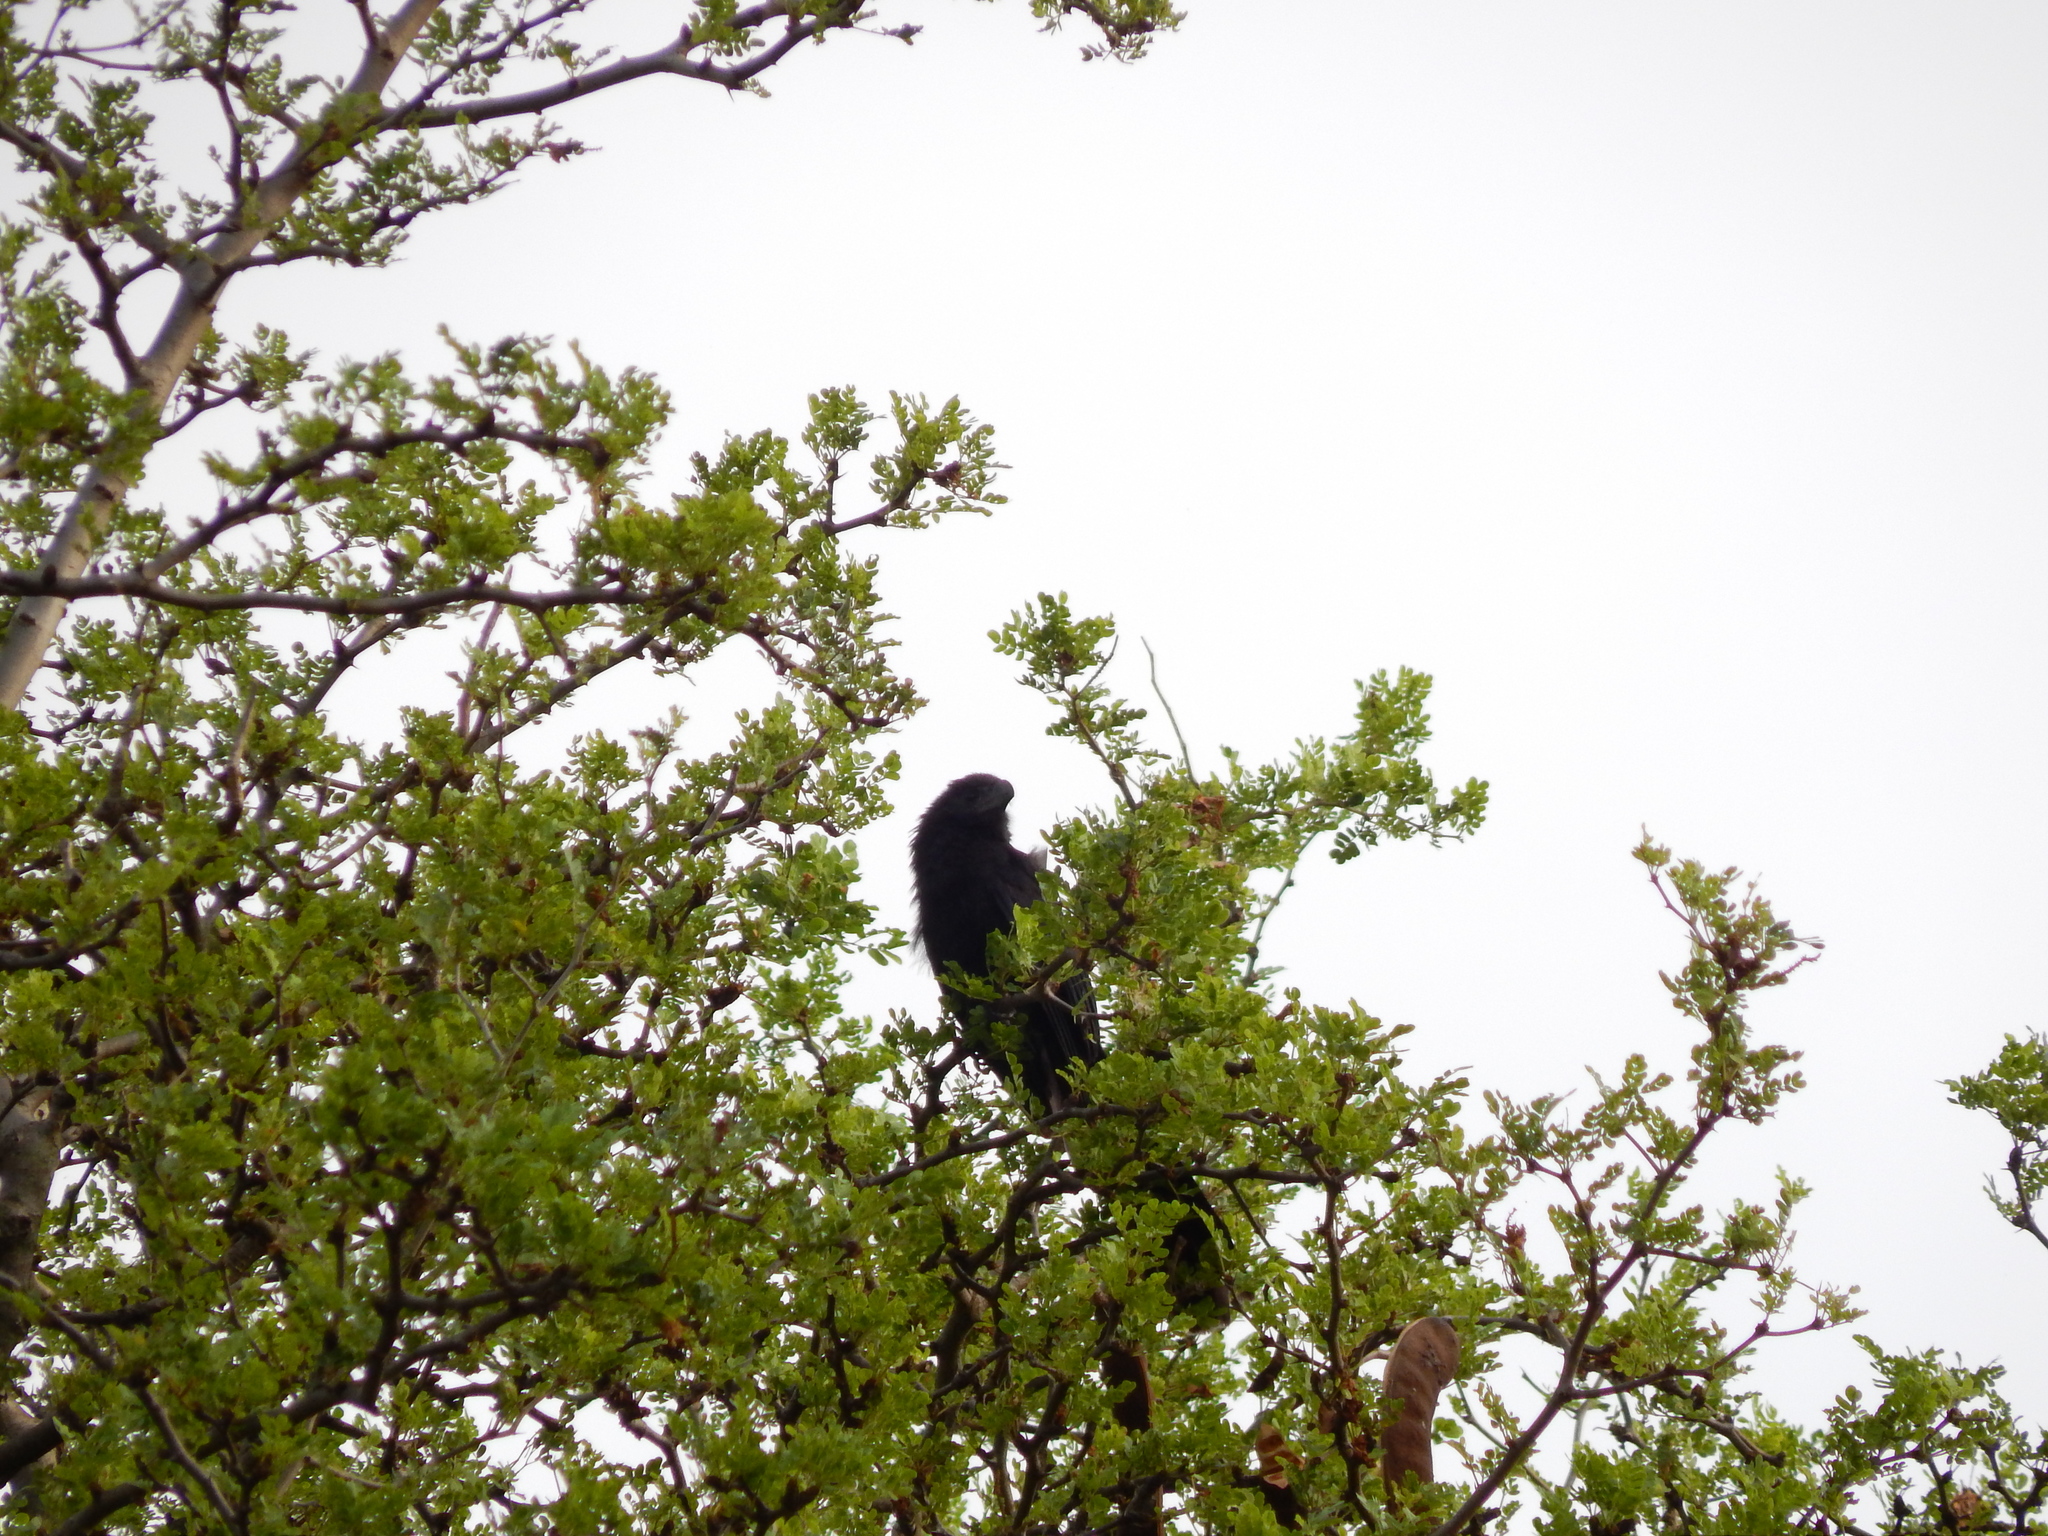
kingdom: Animalia
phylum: Chordata
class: Aves
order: Cuculiformes
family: Cuculidae
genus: Crotophaga
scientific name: Crotophaga sulcirostris
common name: Groove-billed ani
